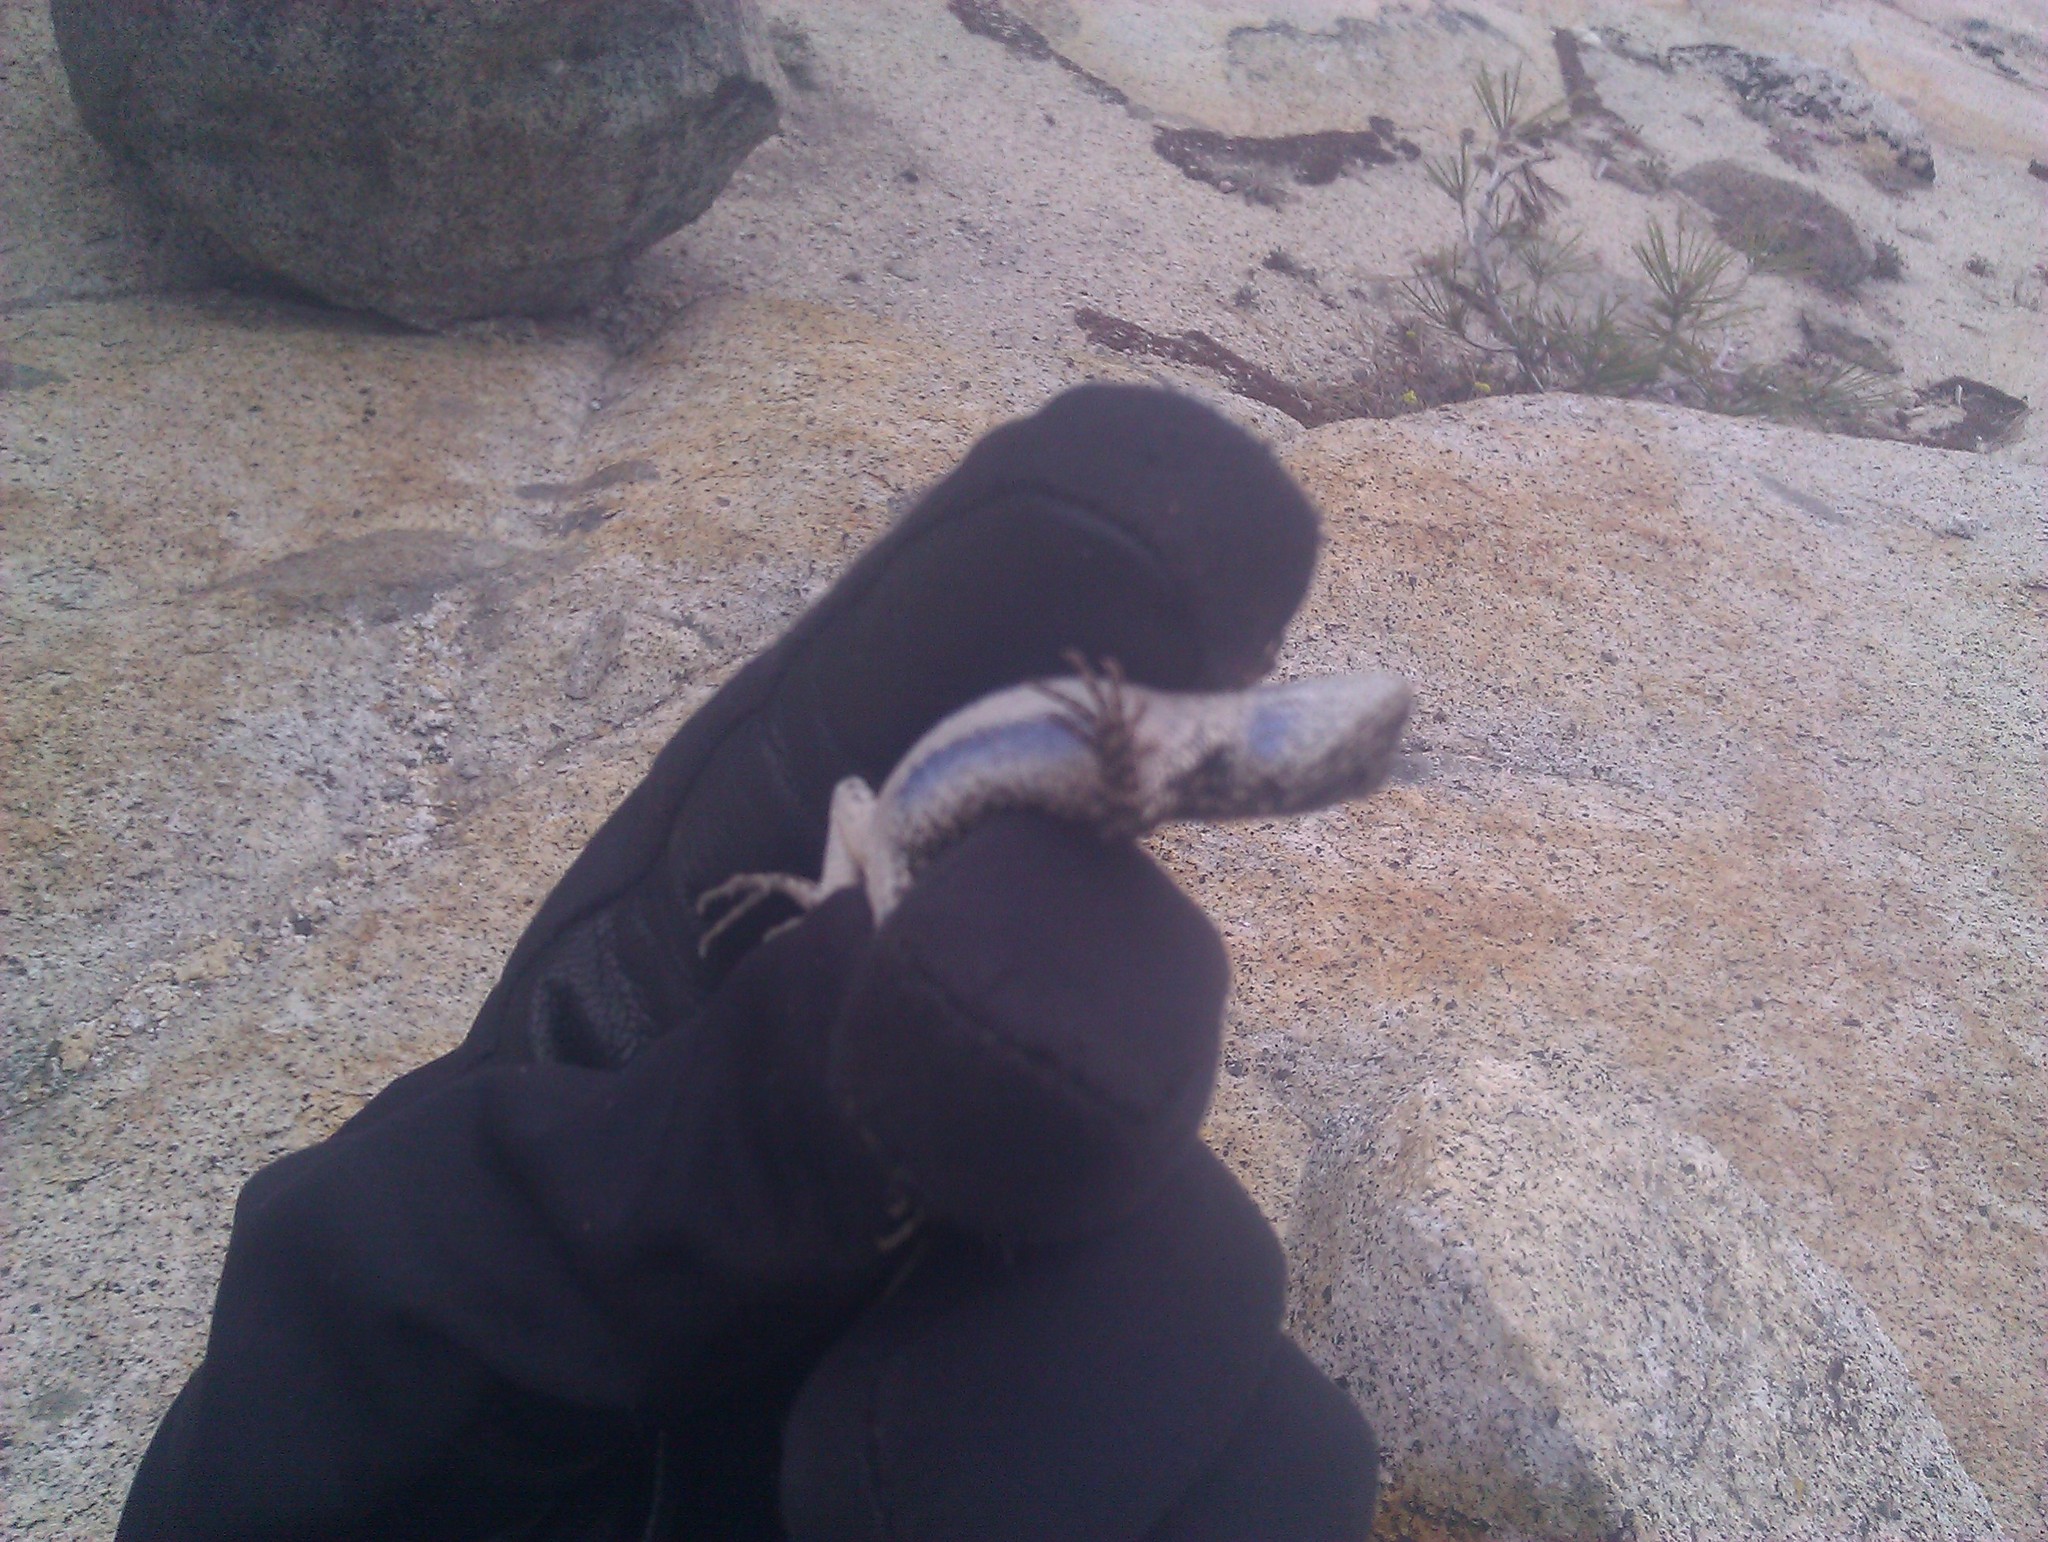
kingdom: Animalia
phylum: Chordata
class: Squamata
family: Phrynosomatidae
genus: Sceloporus
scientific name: Sceloporus graciosus
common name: Sagebrush lizard
